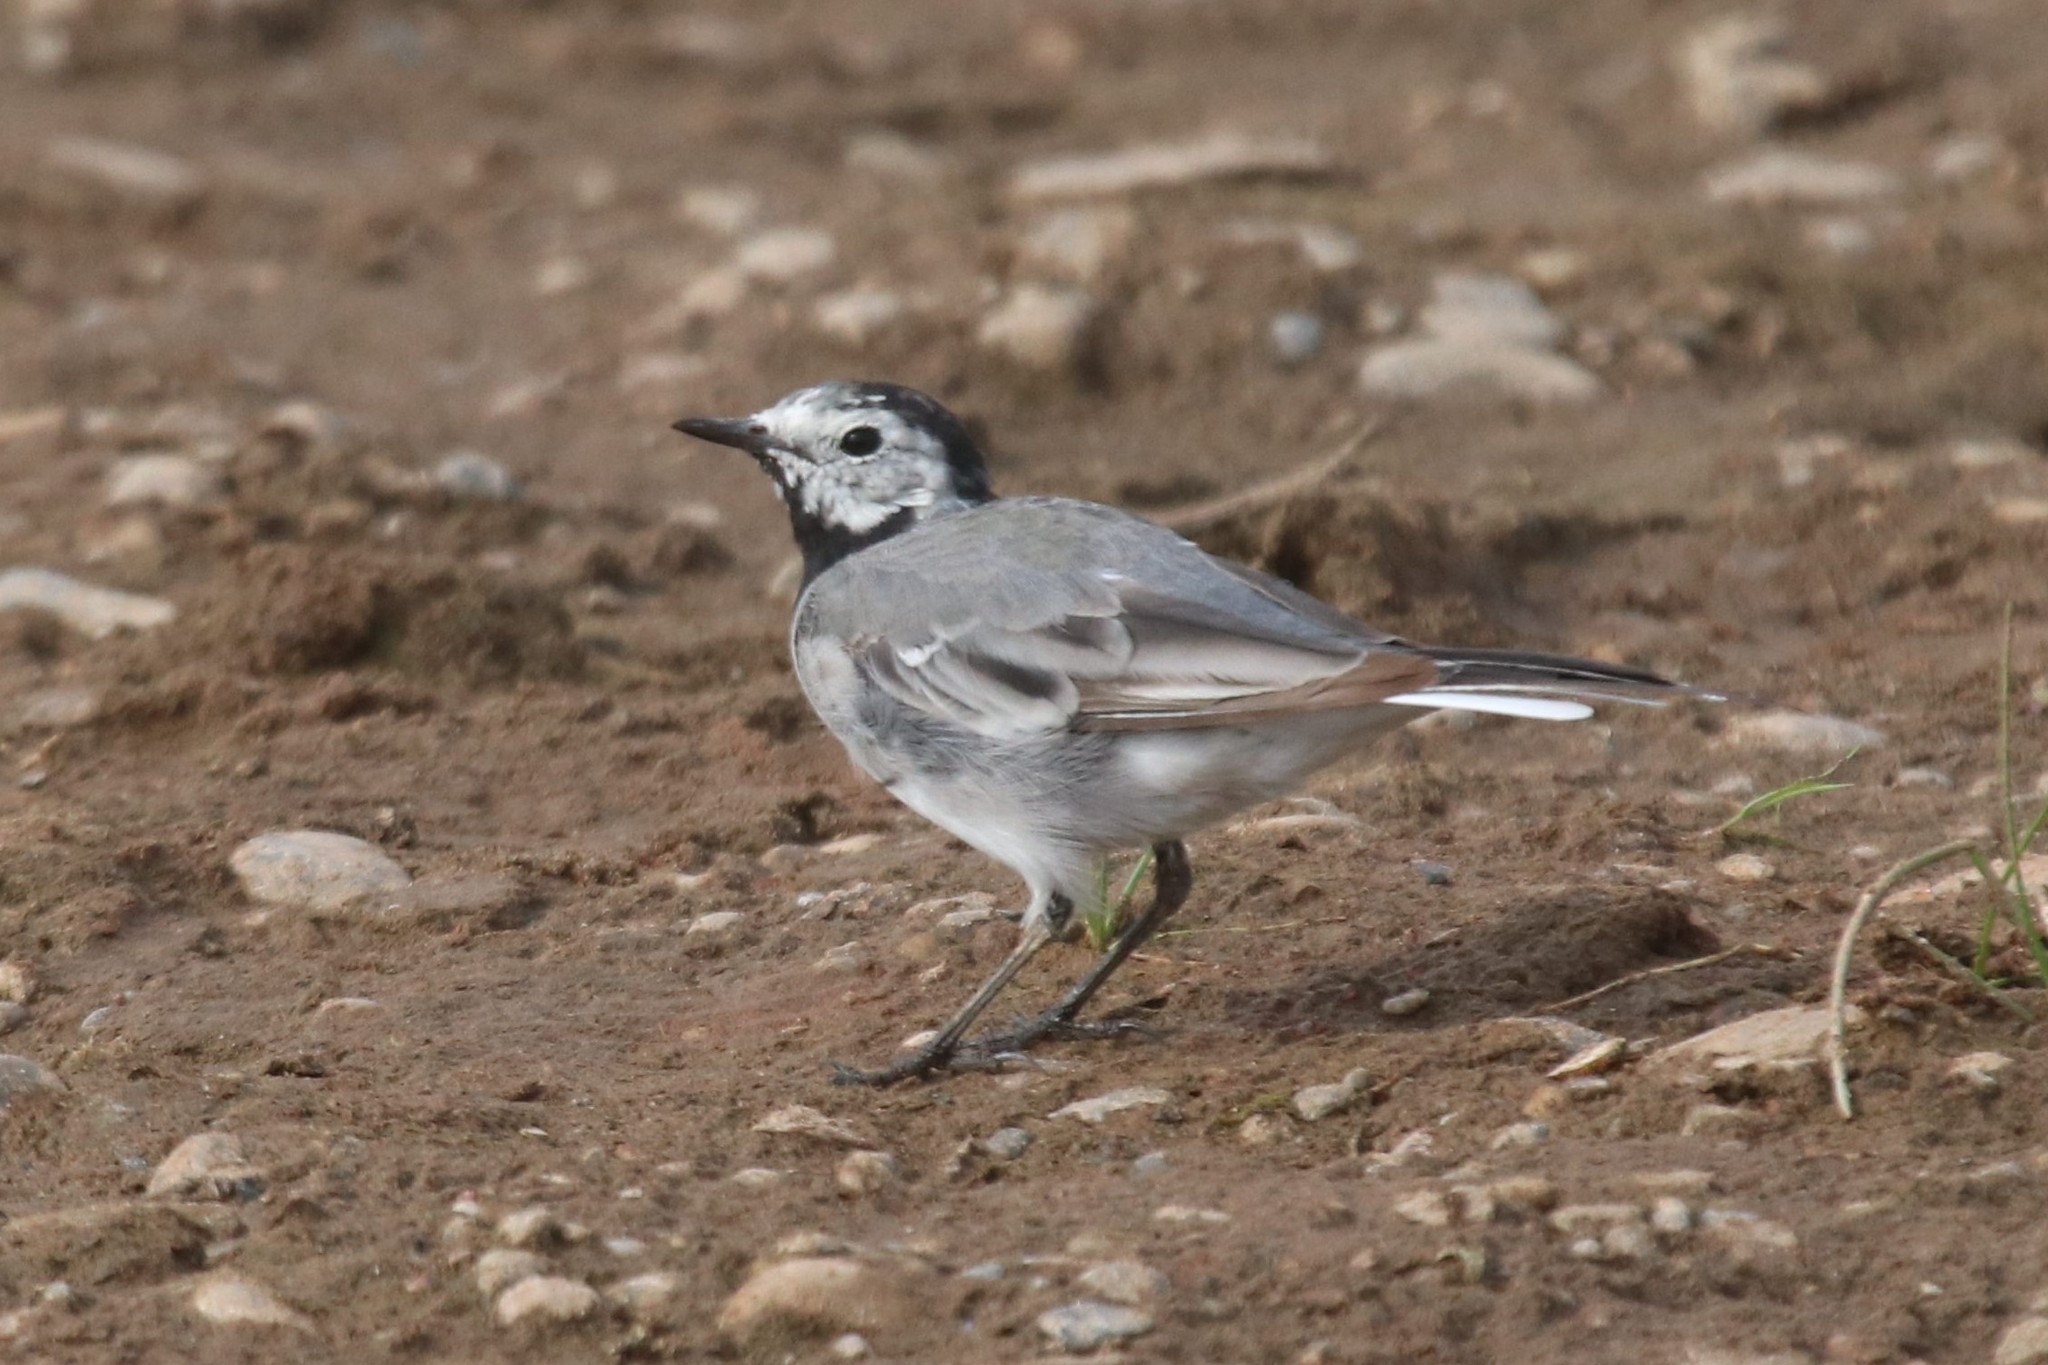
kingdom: Animalia
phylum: Chordata
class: Aves
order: Passeriformes
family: Motacillidae
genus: Motacilla
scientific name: Motacilla alba
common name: White wagtail
